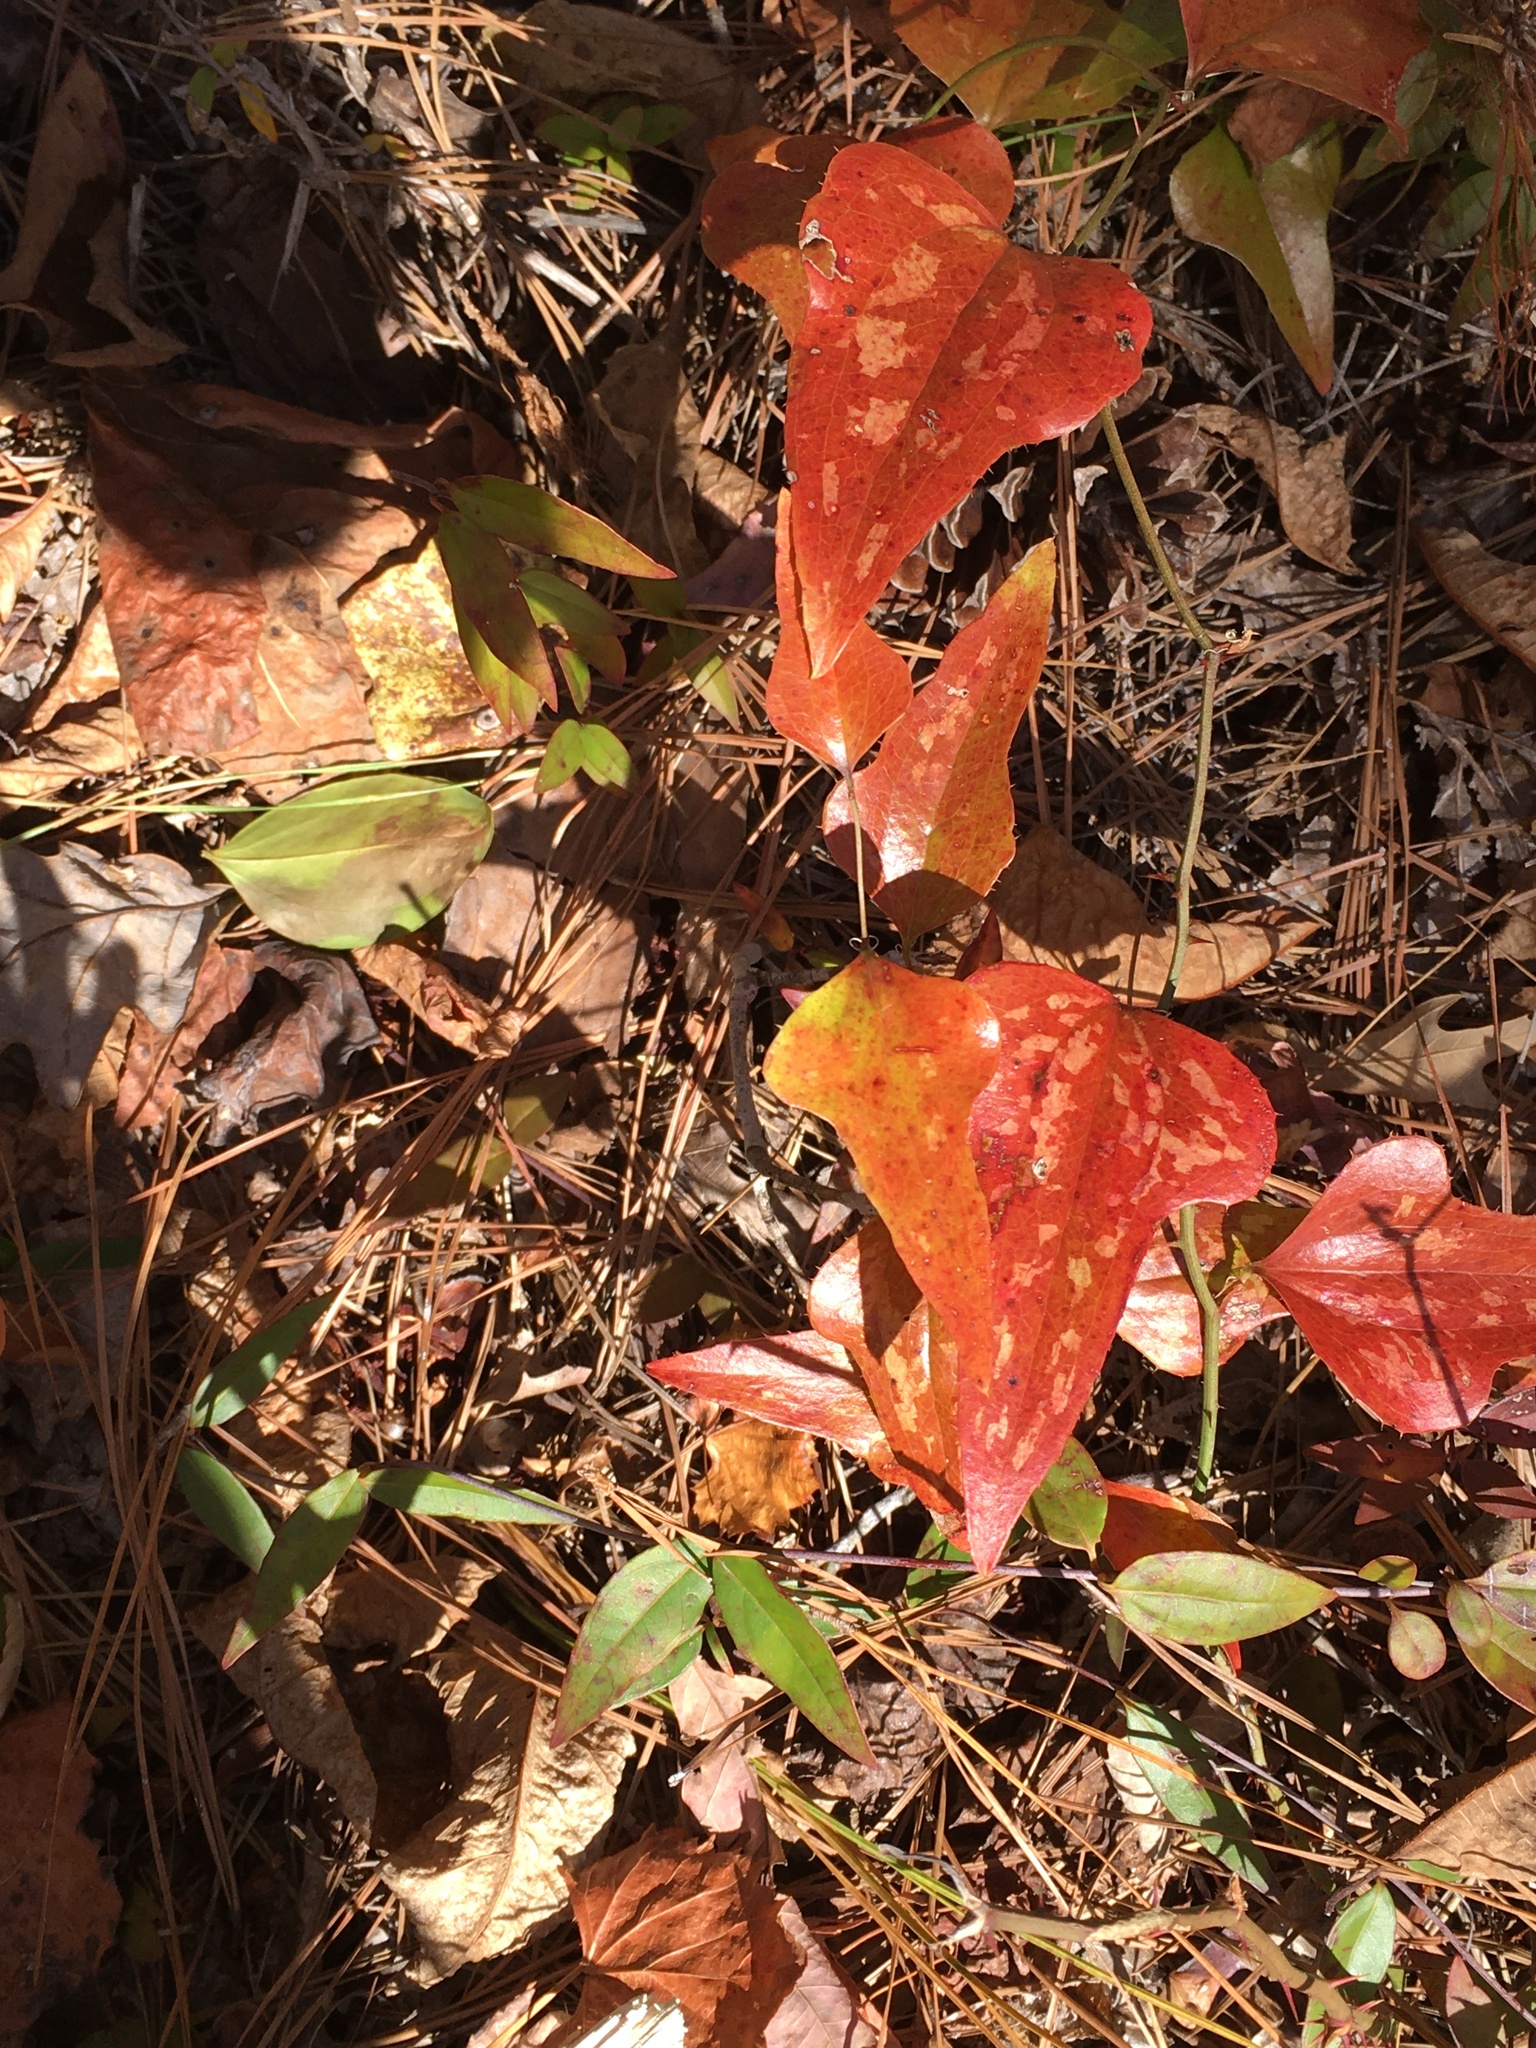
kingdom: Plantae
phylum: Tracheophyta
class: Liliopsida
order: Liliales
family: Smilacaceae
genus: Smilax
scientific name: Smilax bona-nox
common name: Catbrier
